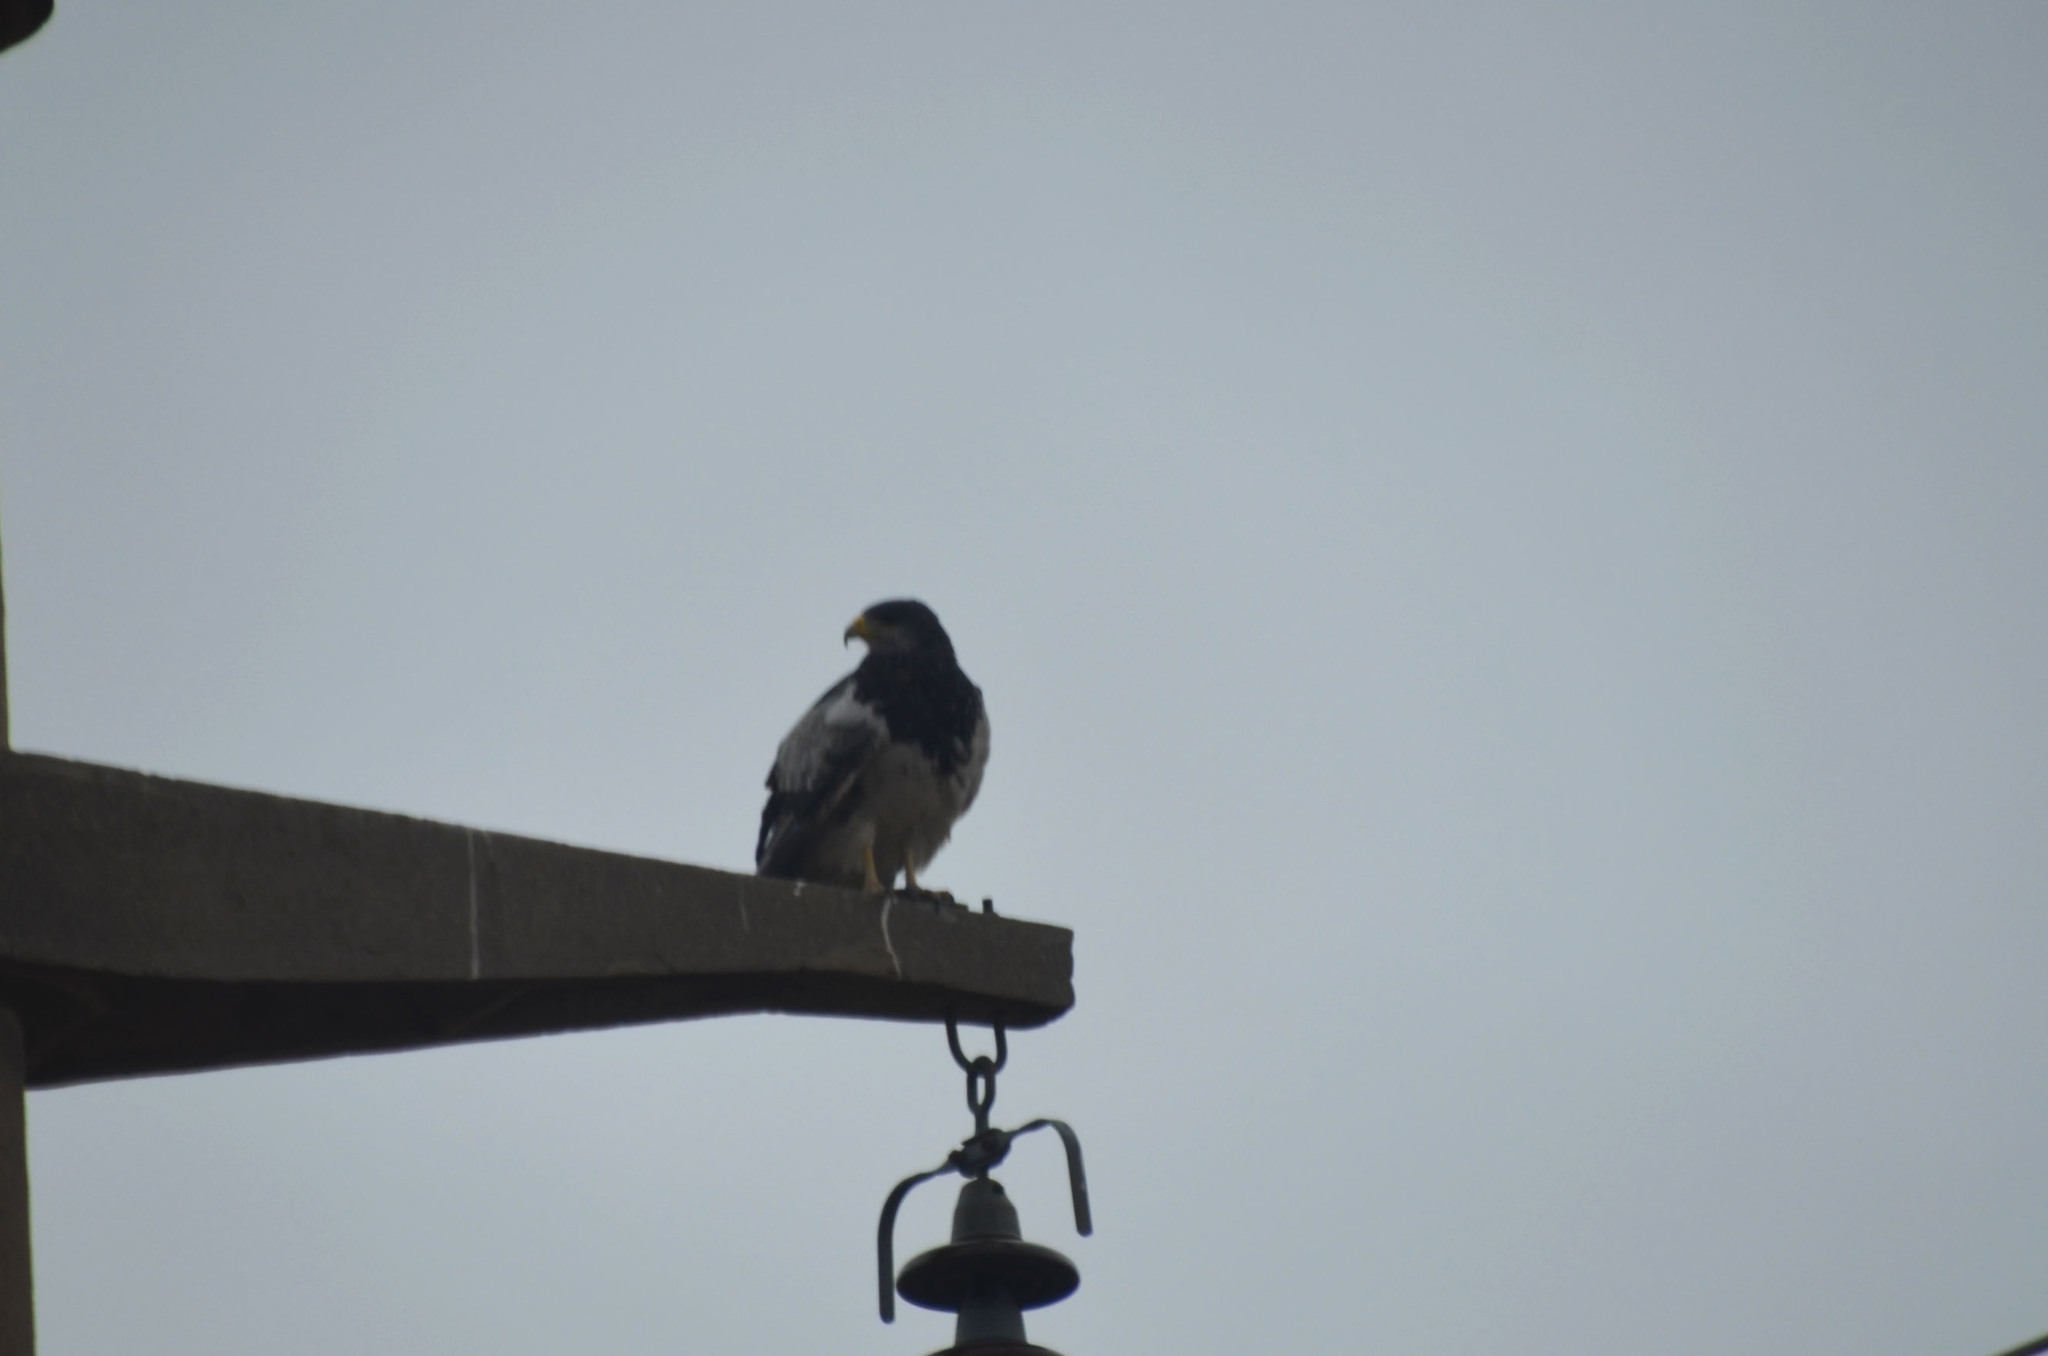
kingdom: Animalia
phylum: Chordata
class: Aves
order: Accipitriformes
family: Accipitridae
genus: Geranoaetus
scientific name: Geranoaetus melanoleucus
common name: Black-chested buzzard-eagle
